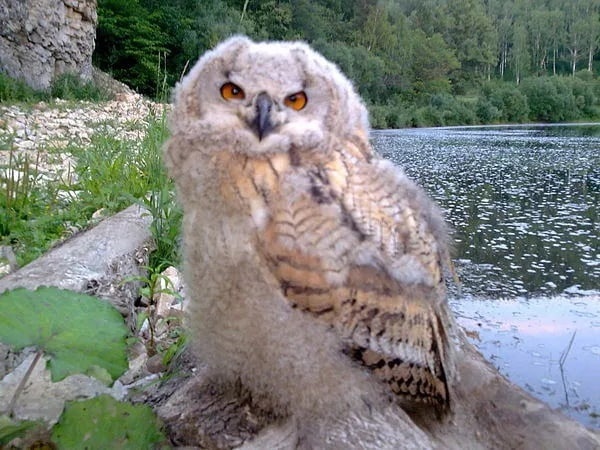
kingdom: Animalia
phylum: Chordata
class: Aves
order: Strigiformes
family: Strigidae
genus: Bubo
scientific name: Bubo bubo
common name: Eurasian eagle-owl
